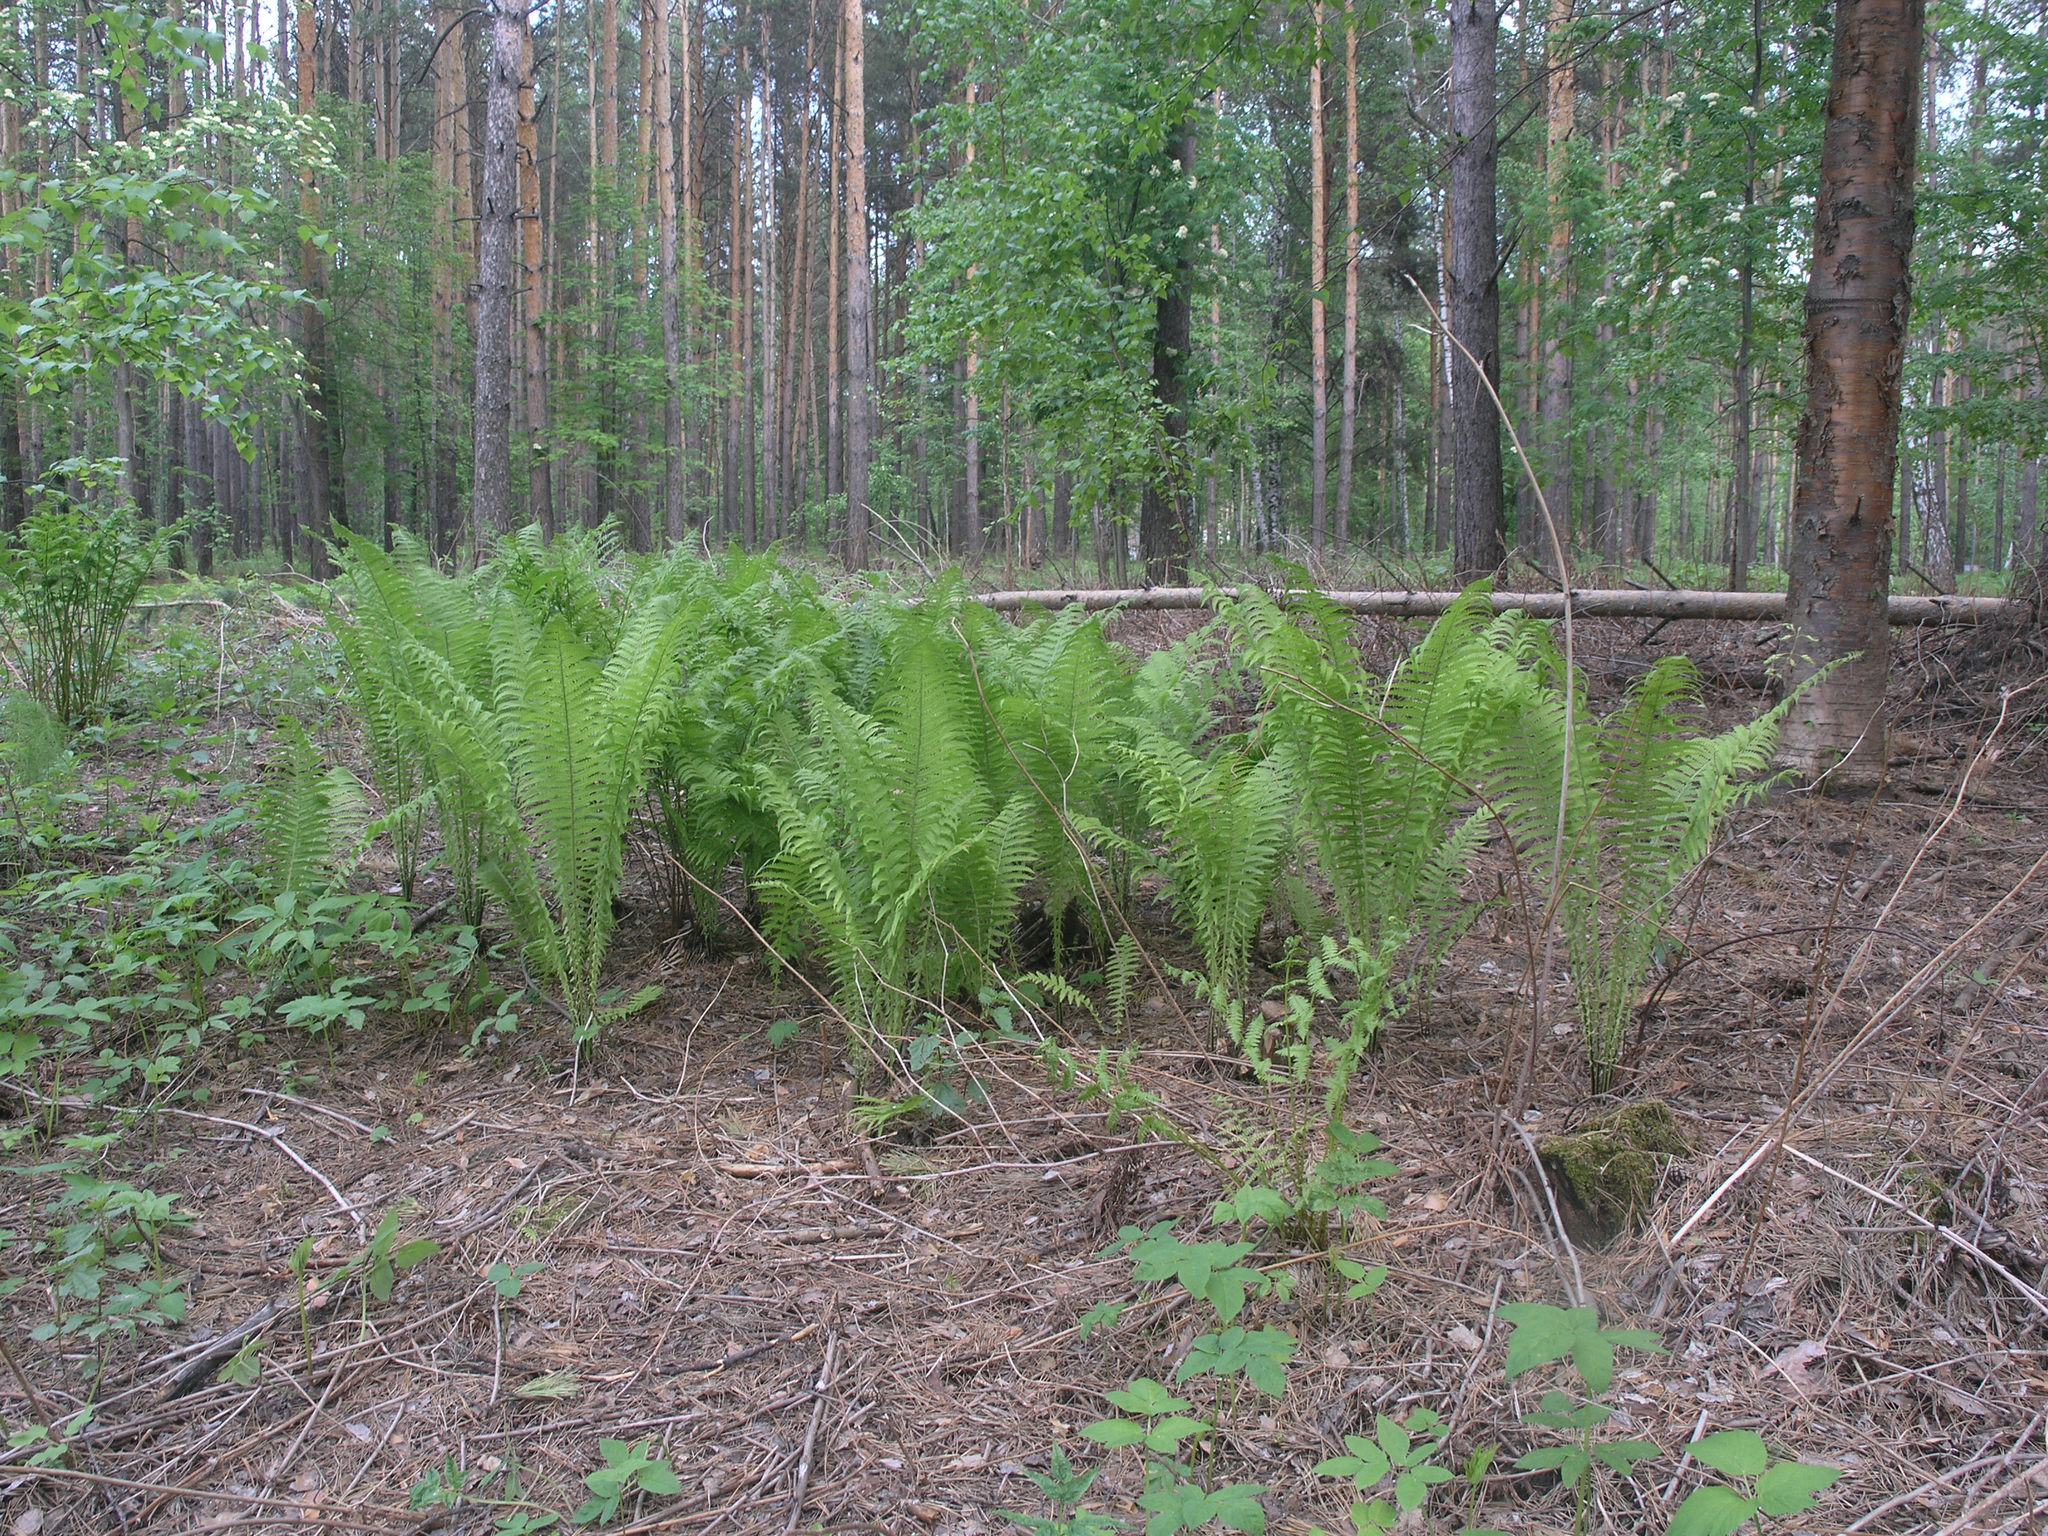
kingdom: Plantae
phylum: Tracheophyta
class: Polypodiopsida
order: Polypodiales
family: Onocleaceae
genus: Matteuccia
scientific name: Matteuccia struthiopteris
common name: Ostrich fern
